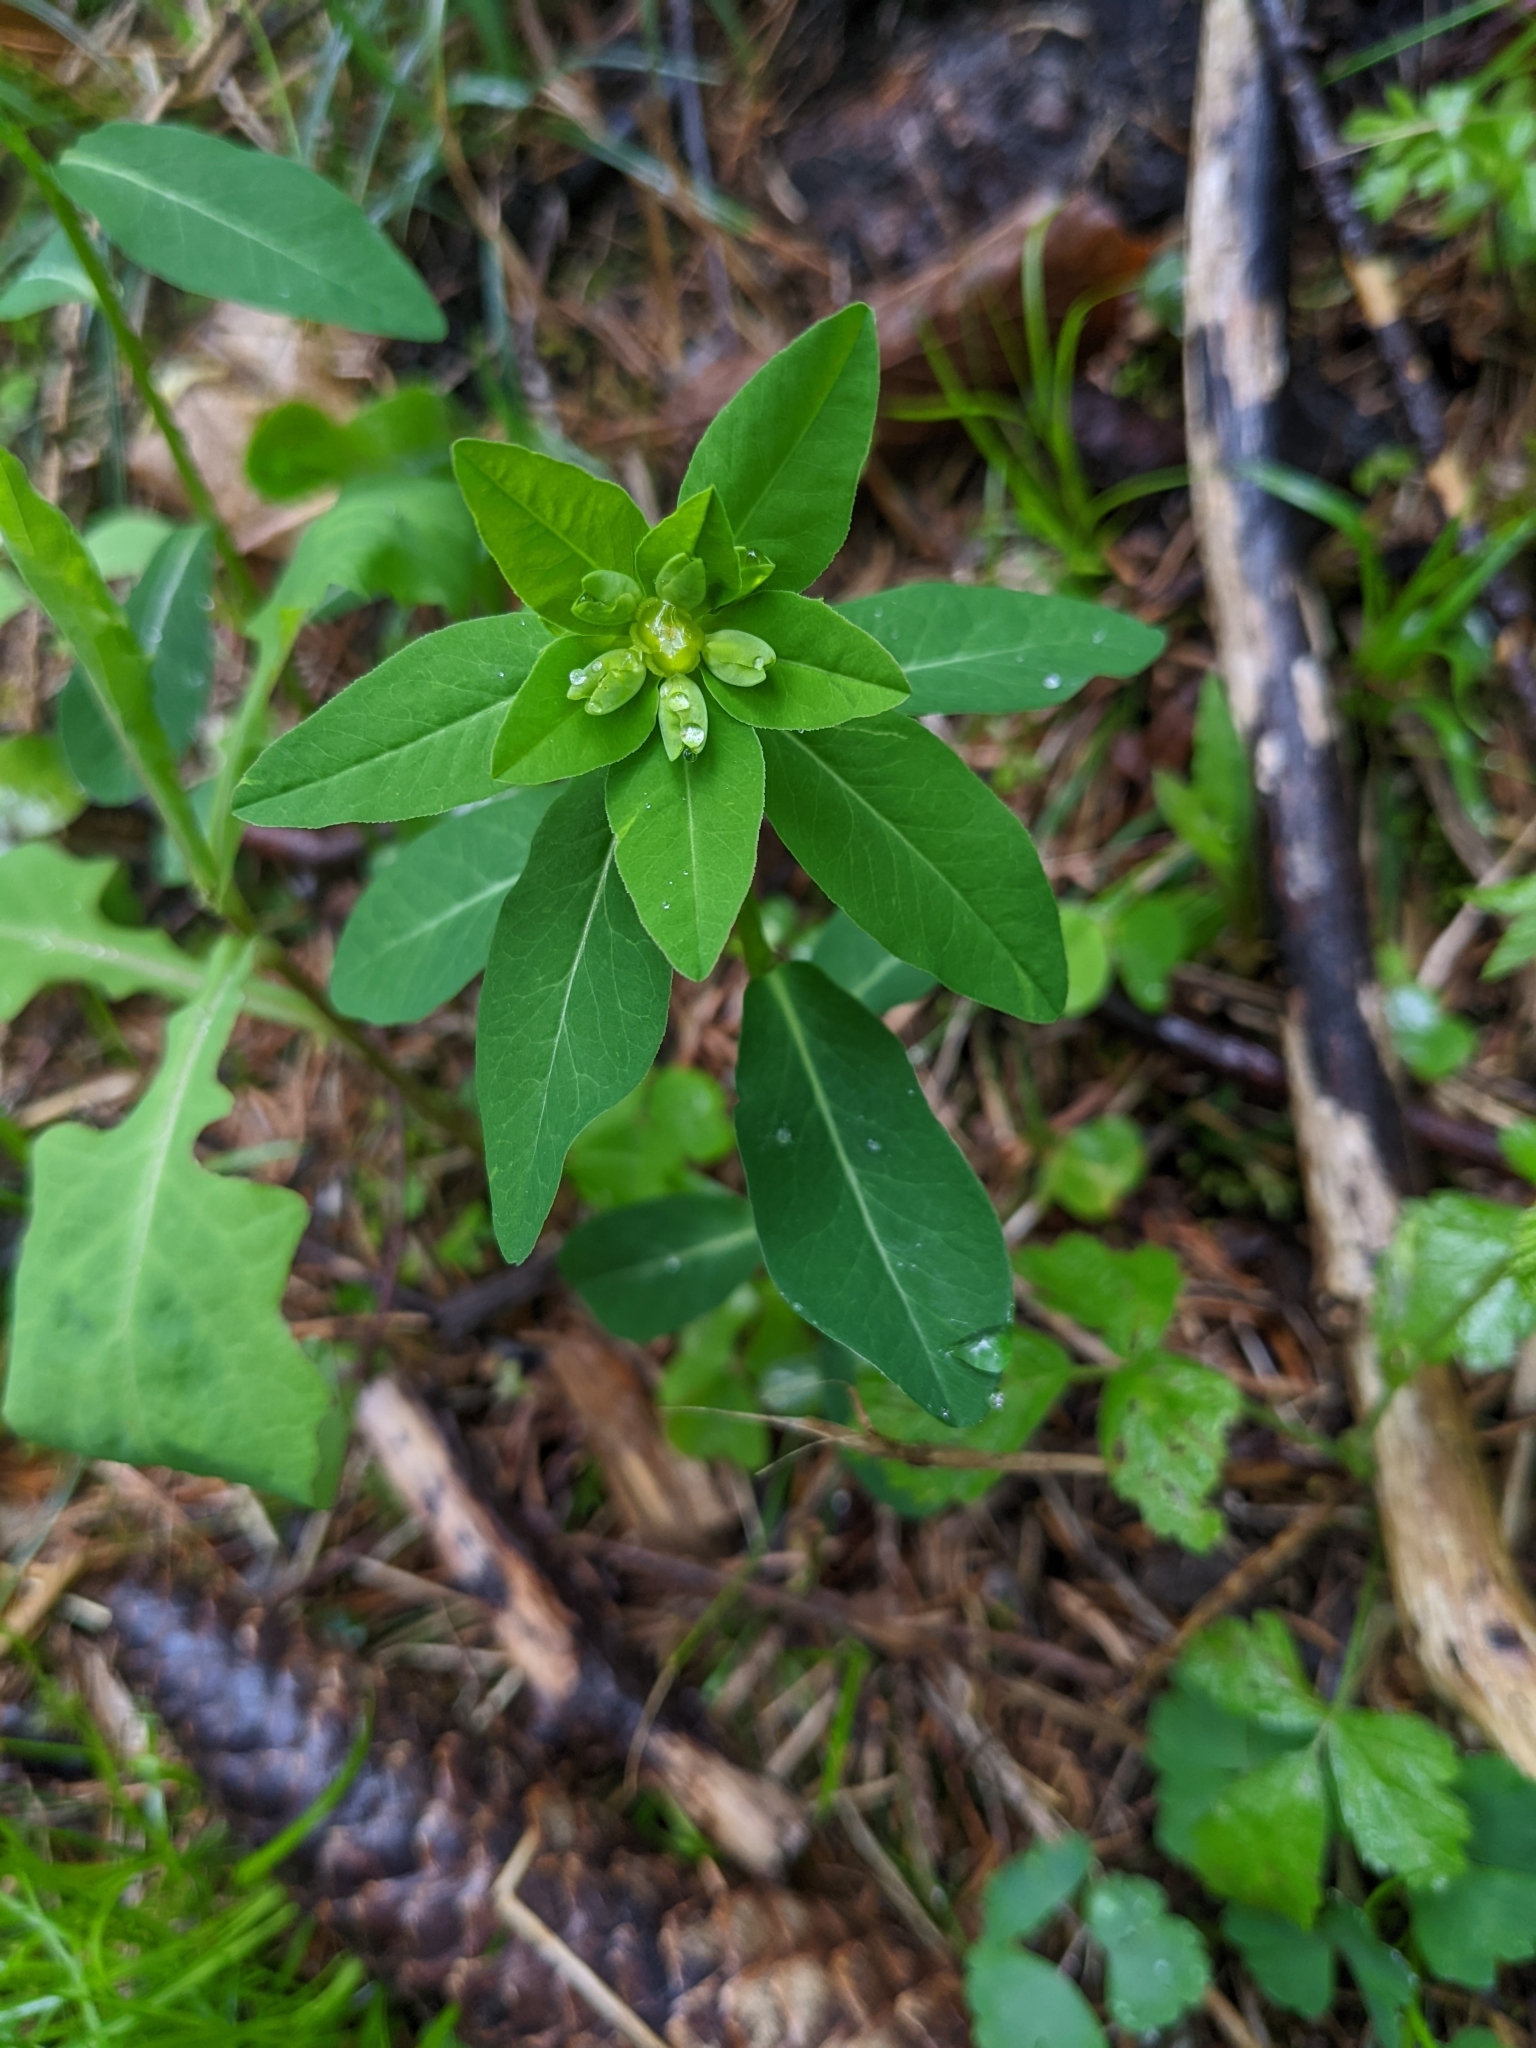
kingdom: Plantae
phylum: Tracheophyta
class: Magnoliopsida
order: Malpighiales
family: Euphorbiaceae
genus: Euphorbia
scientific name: Euphorbia dulcis
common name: Sweet spurge
